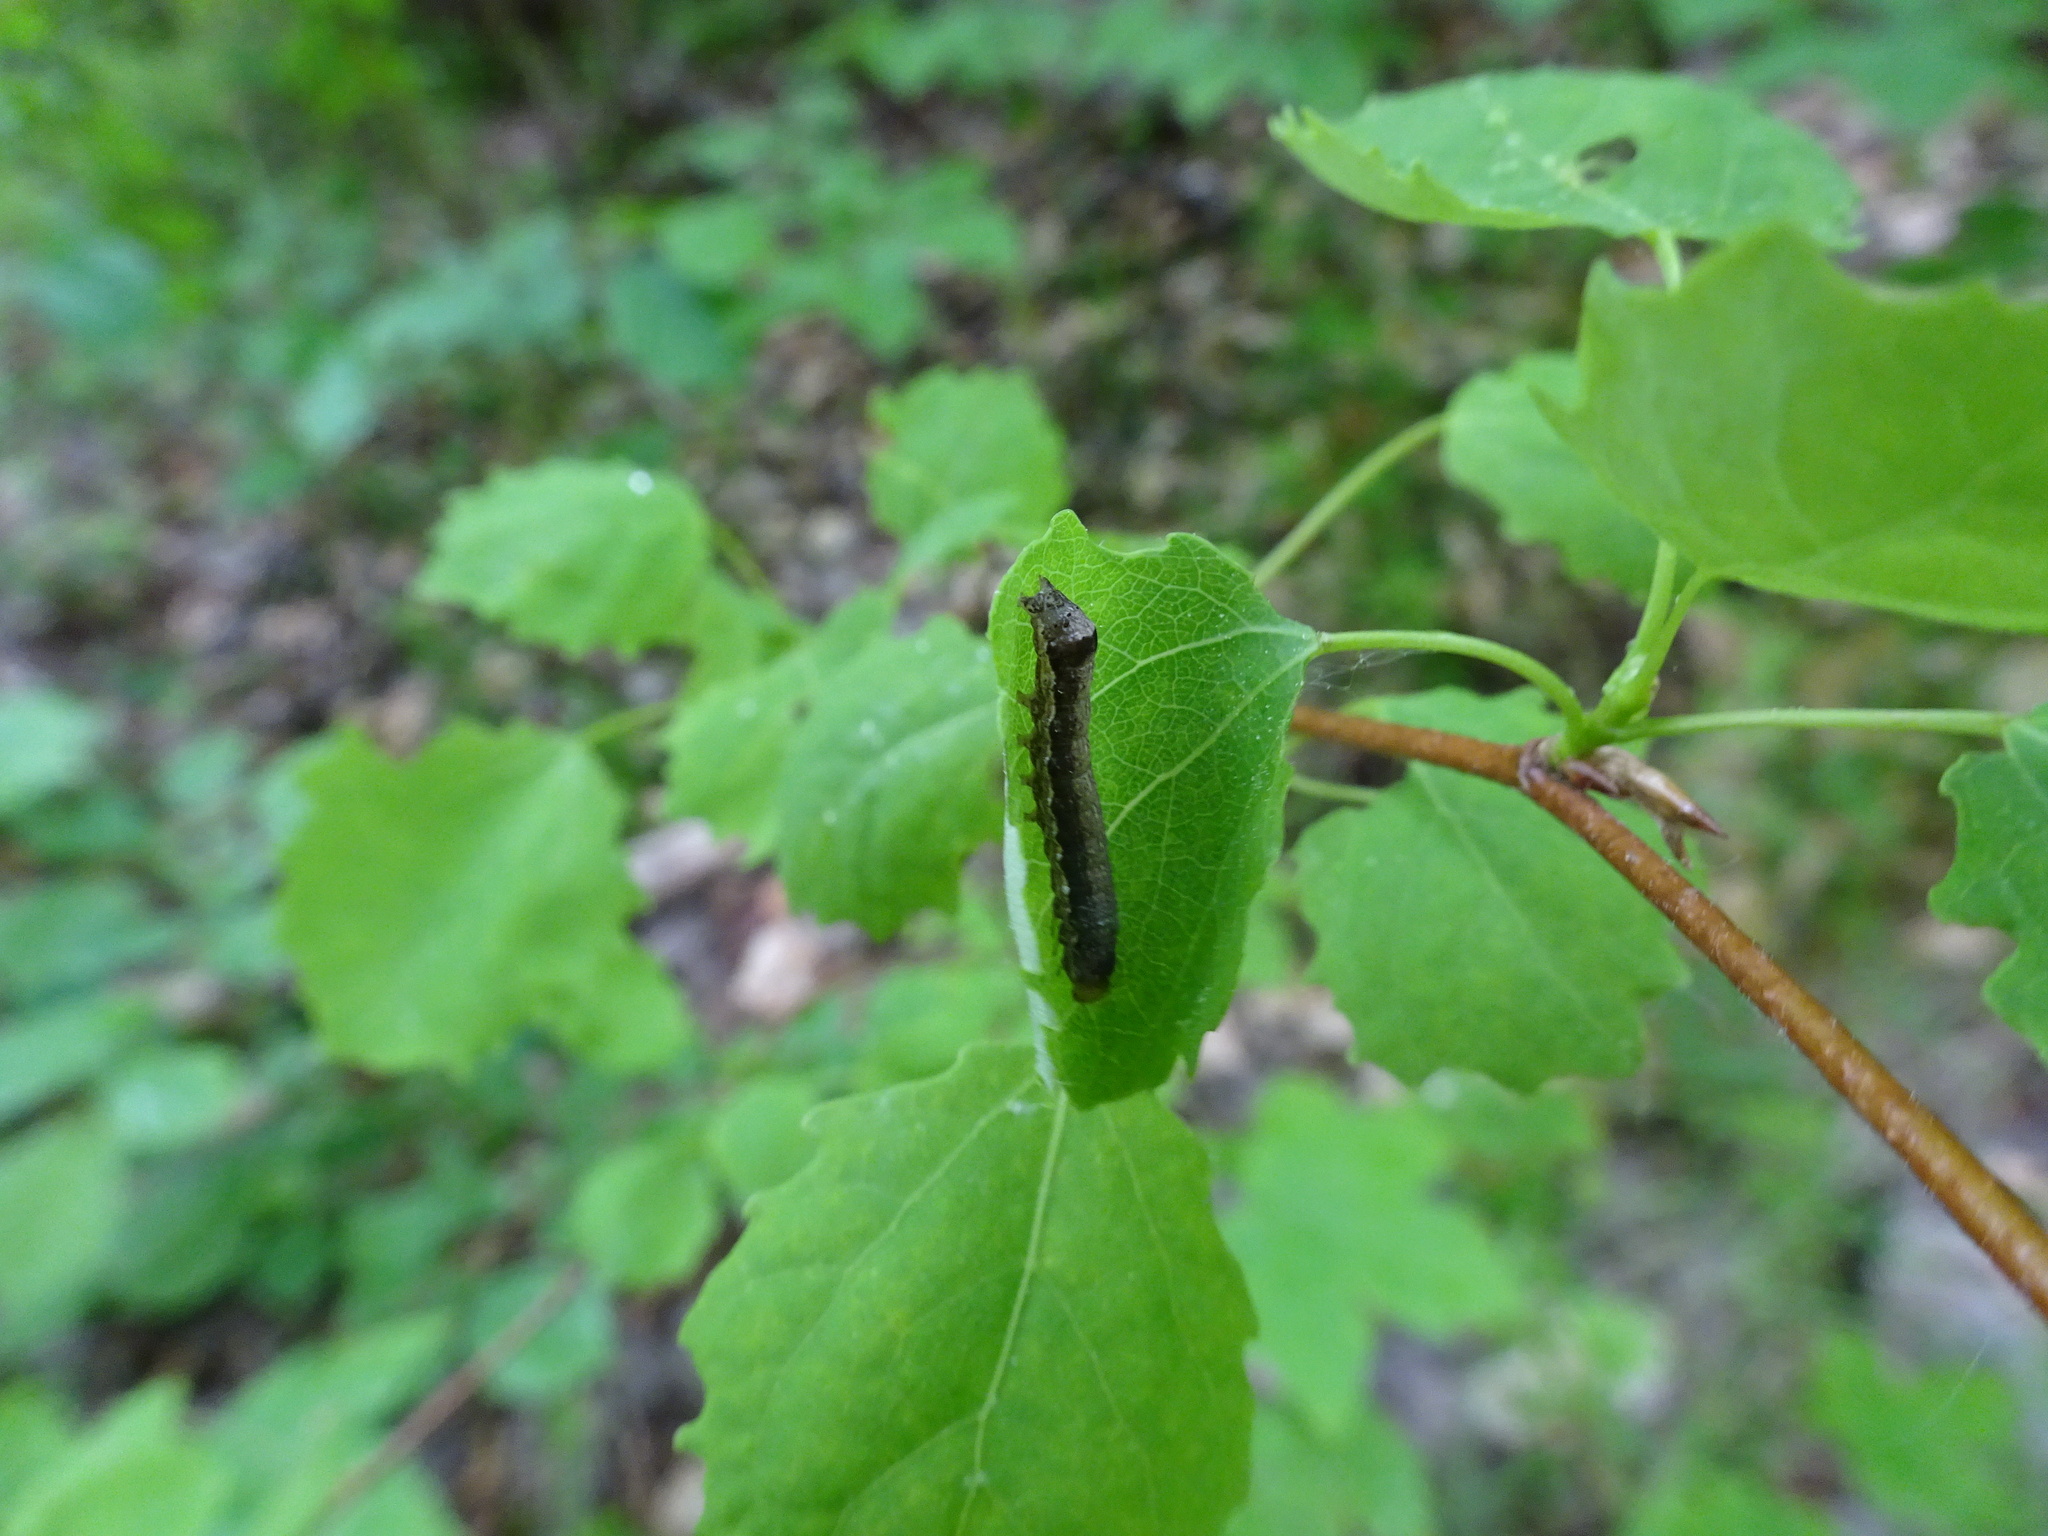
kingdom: Animalia
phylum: Arthropoda
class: Insecta
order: Lepidoptera
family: Noctuidae
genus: Anorthoa
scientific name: Anorthoa munda
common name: Twin-spotted quaker
